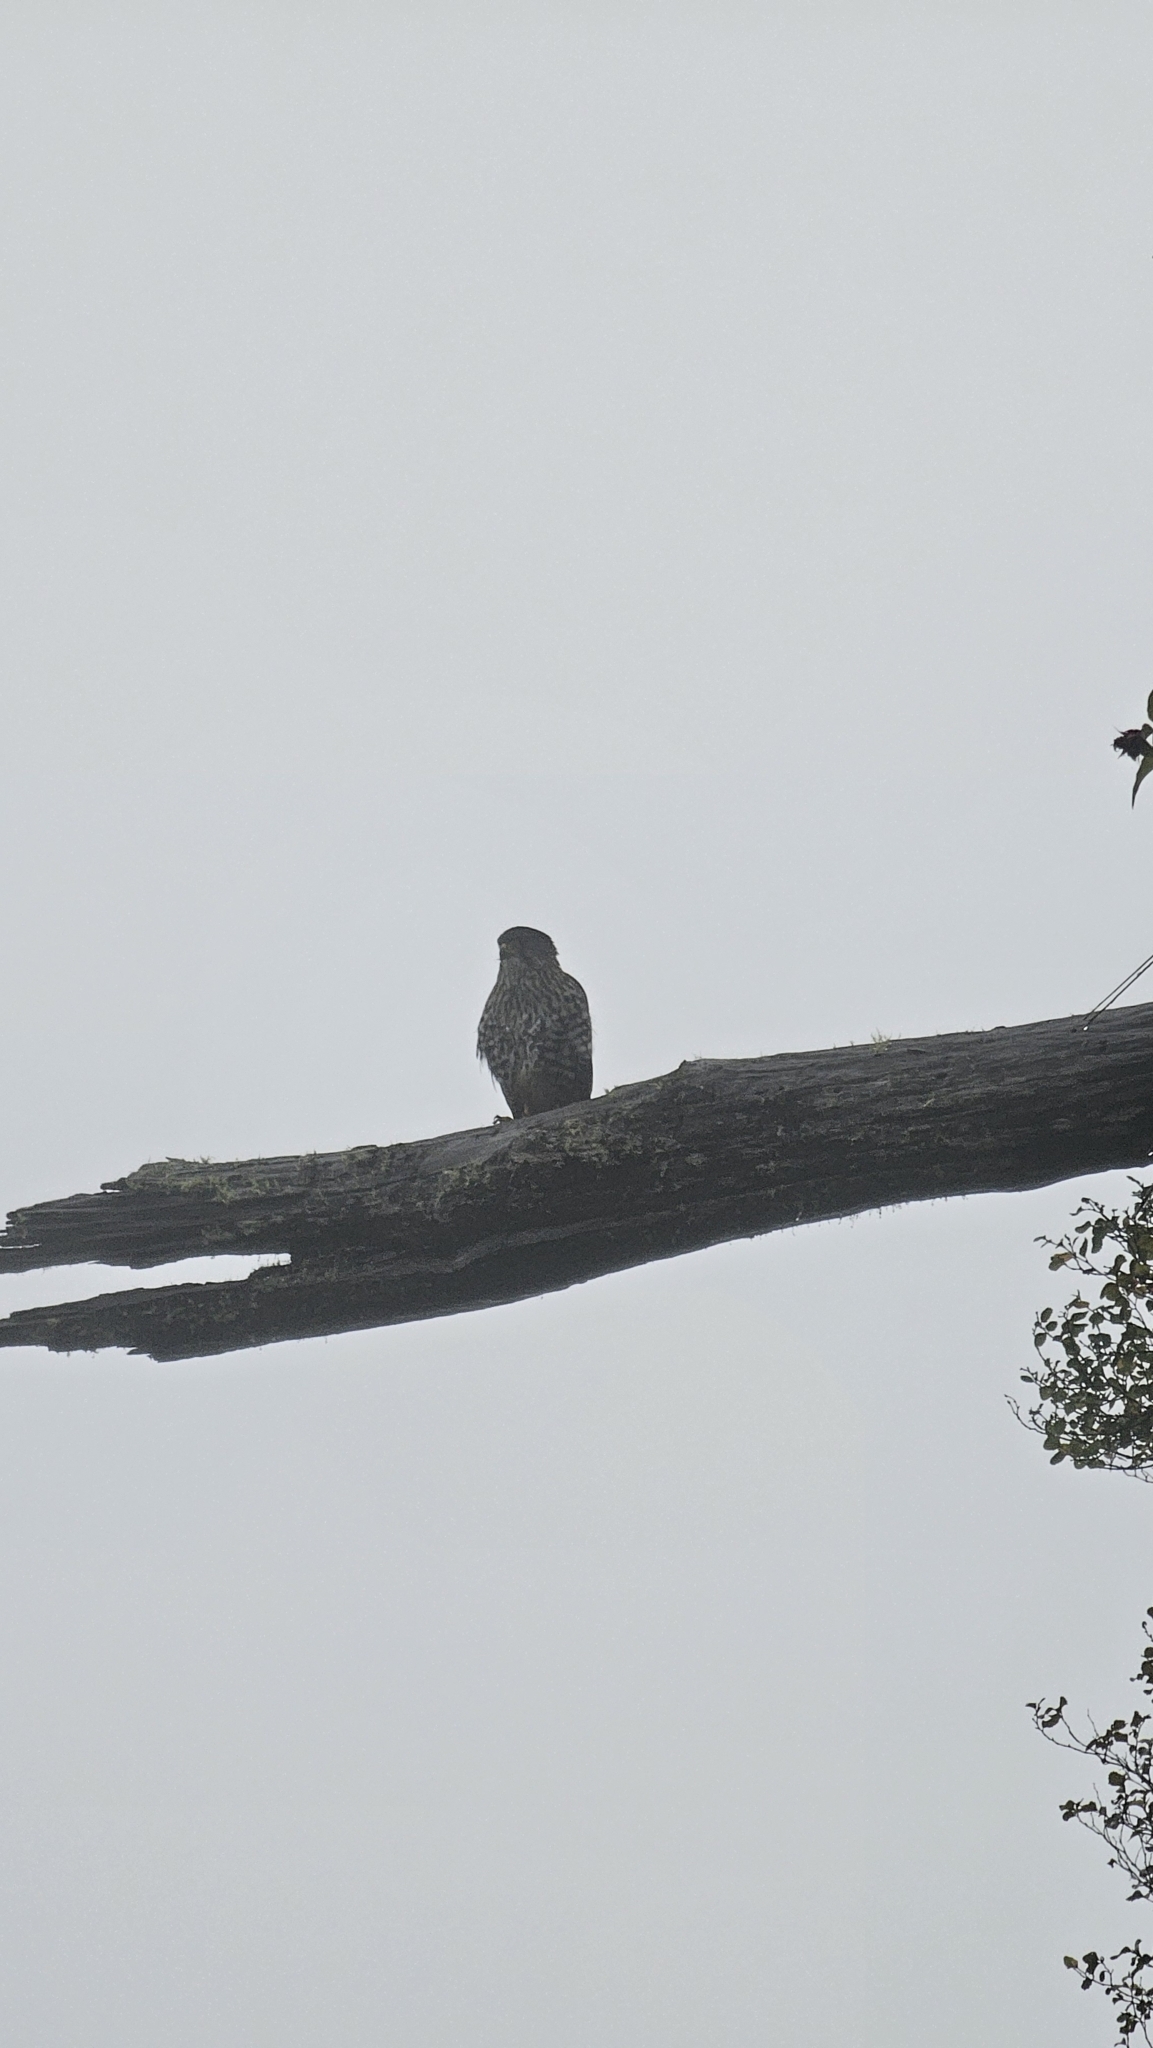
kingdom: Animalia
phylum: Chordata
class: Aves
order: Falconiformes
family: Falconidae
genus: Falco
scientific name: Falco novaeseelandiae
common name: New zealand falcon
